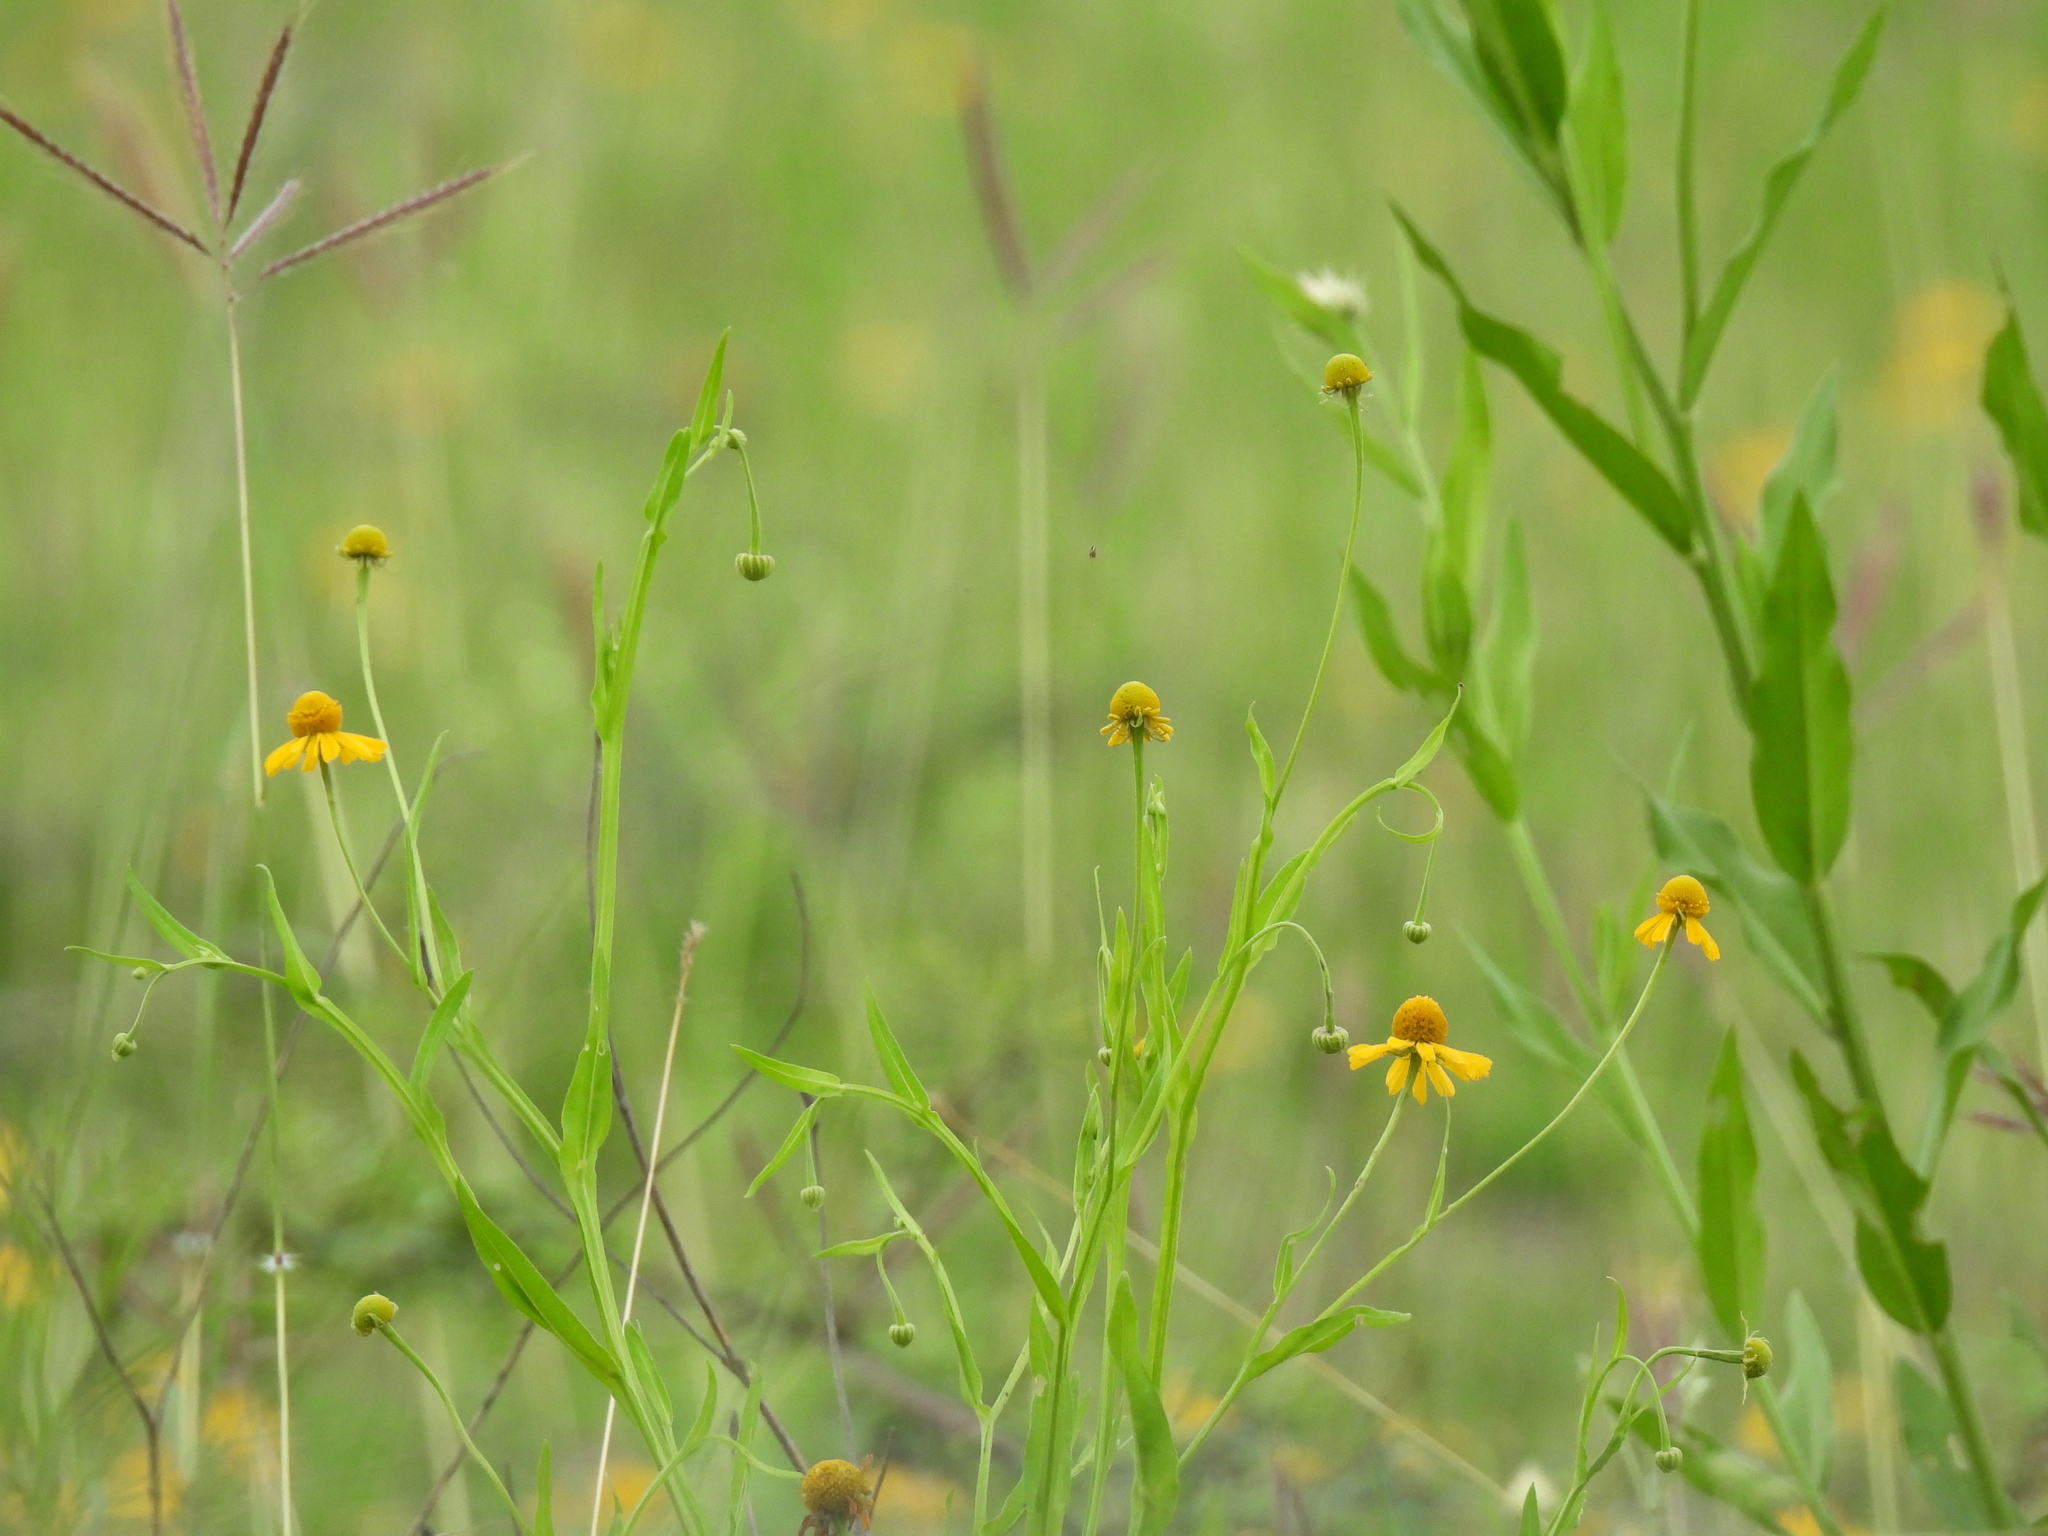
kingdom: Plantae
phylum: Tracheophyta
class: Magnoliopsida
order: Asterales
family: Asteraceae
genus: Helenium
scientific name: Helenium amphibolum
